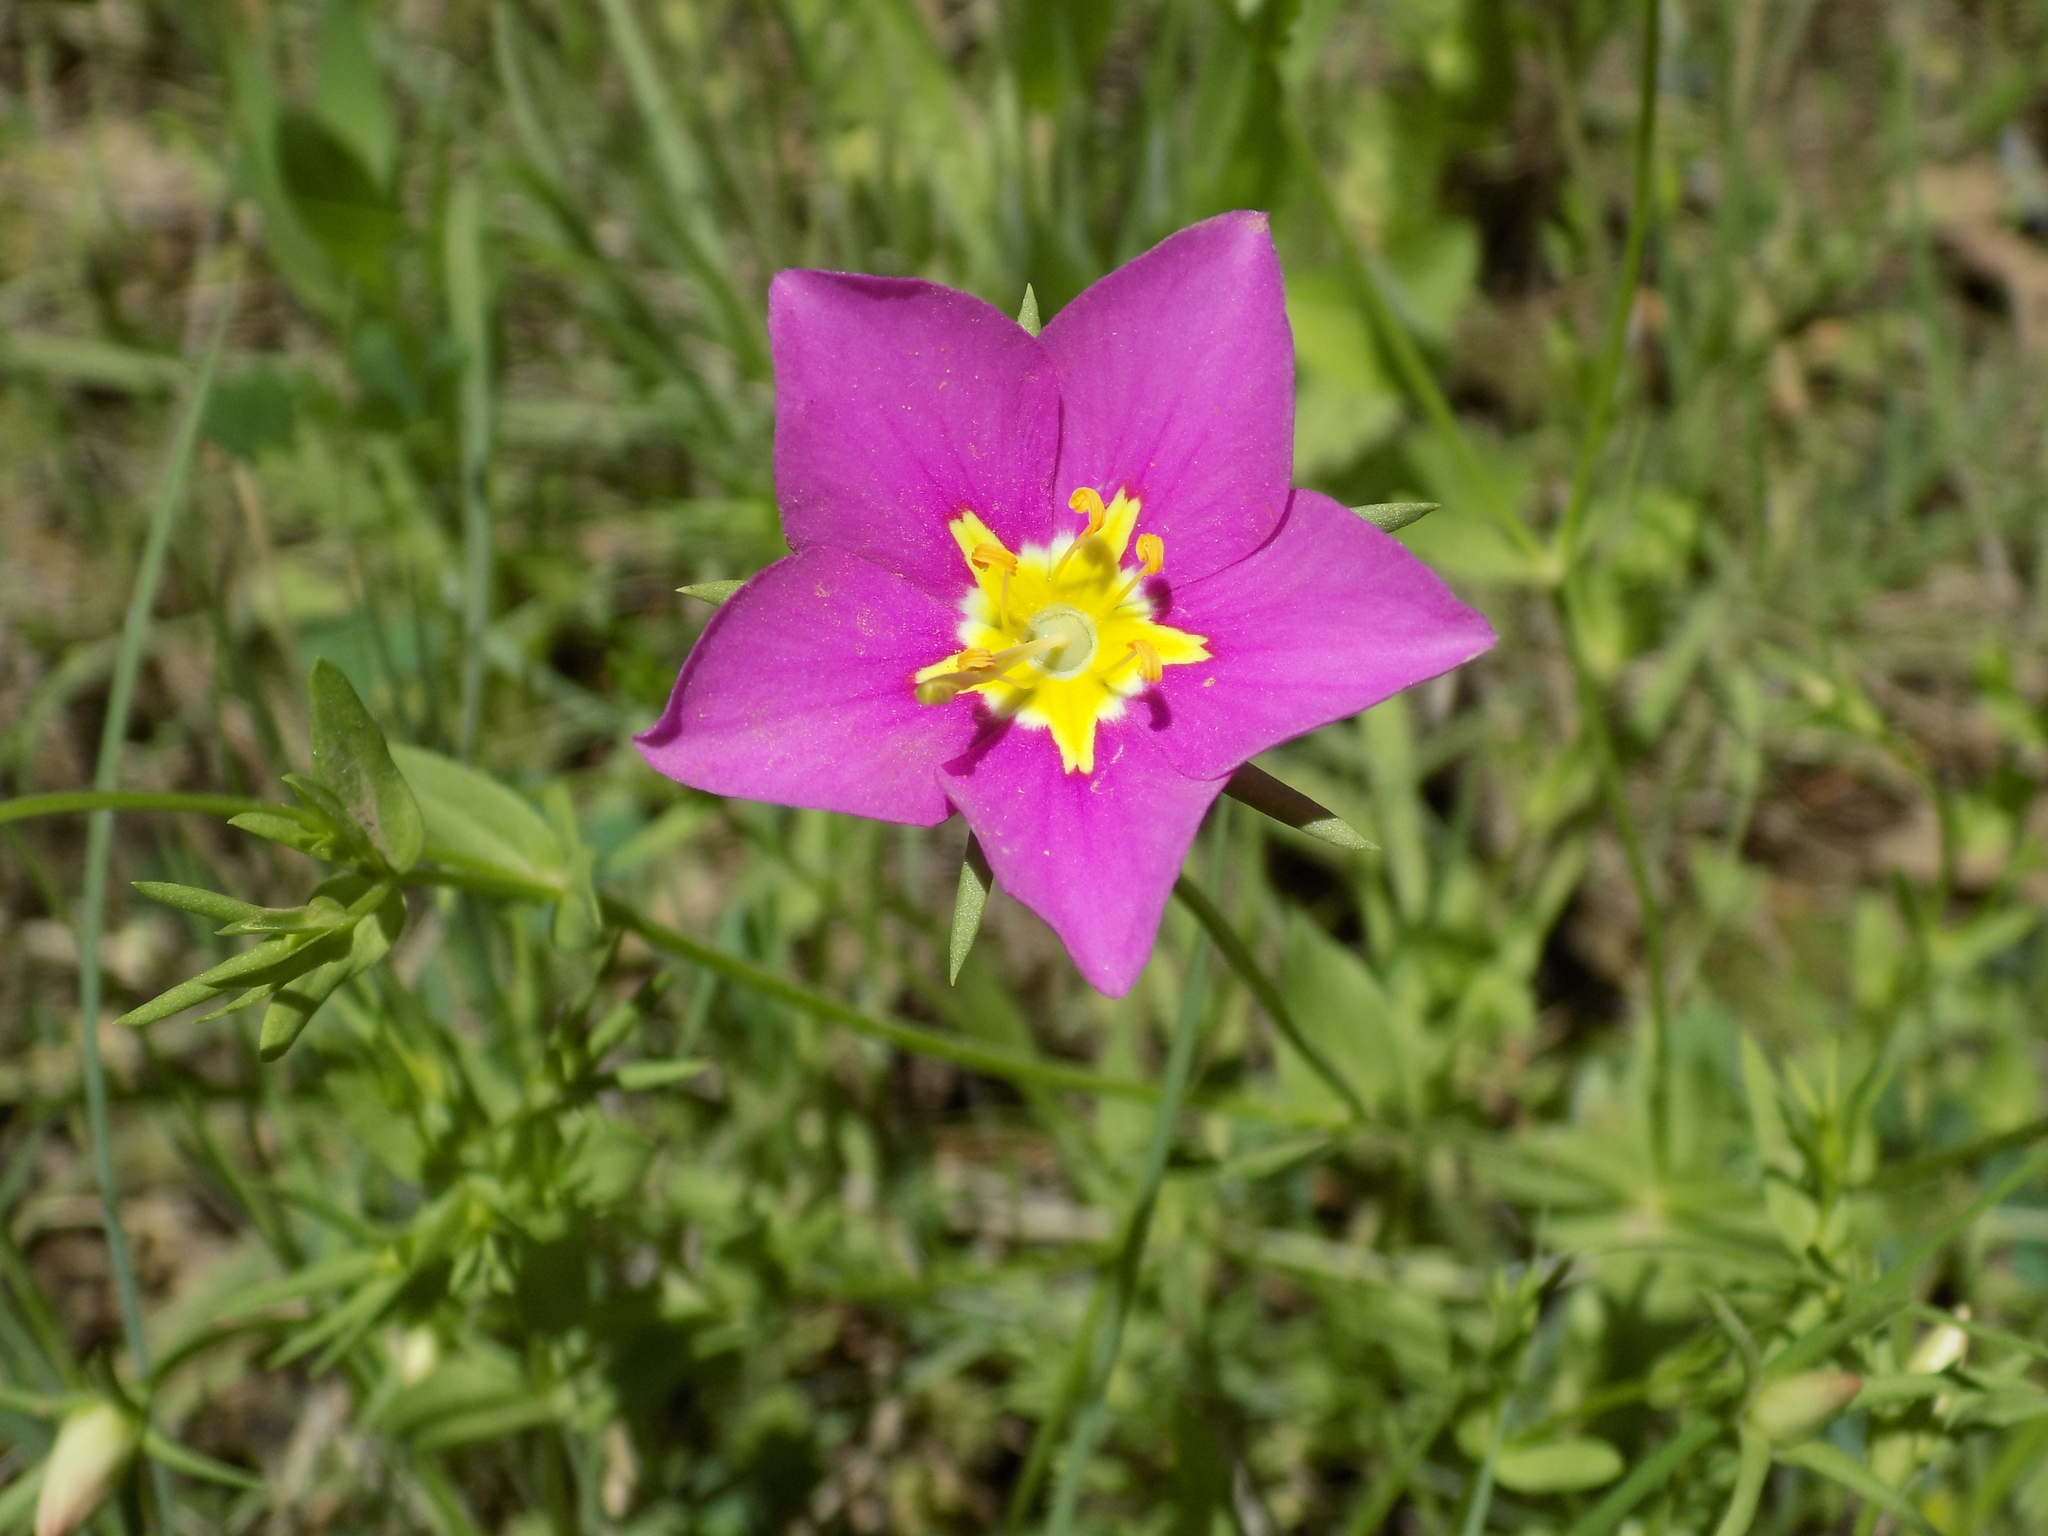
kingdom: Plantae
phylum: Tracheophyta
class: Magnoliopsida
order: Gentianales
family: Gentianaceae
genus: Sabatia
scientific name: Sabatia campestris
